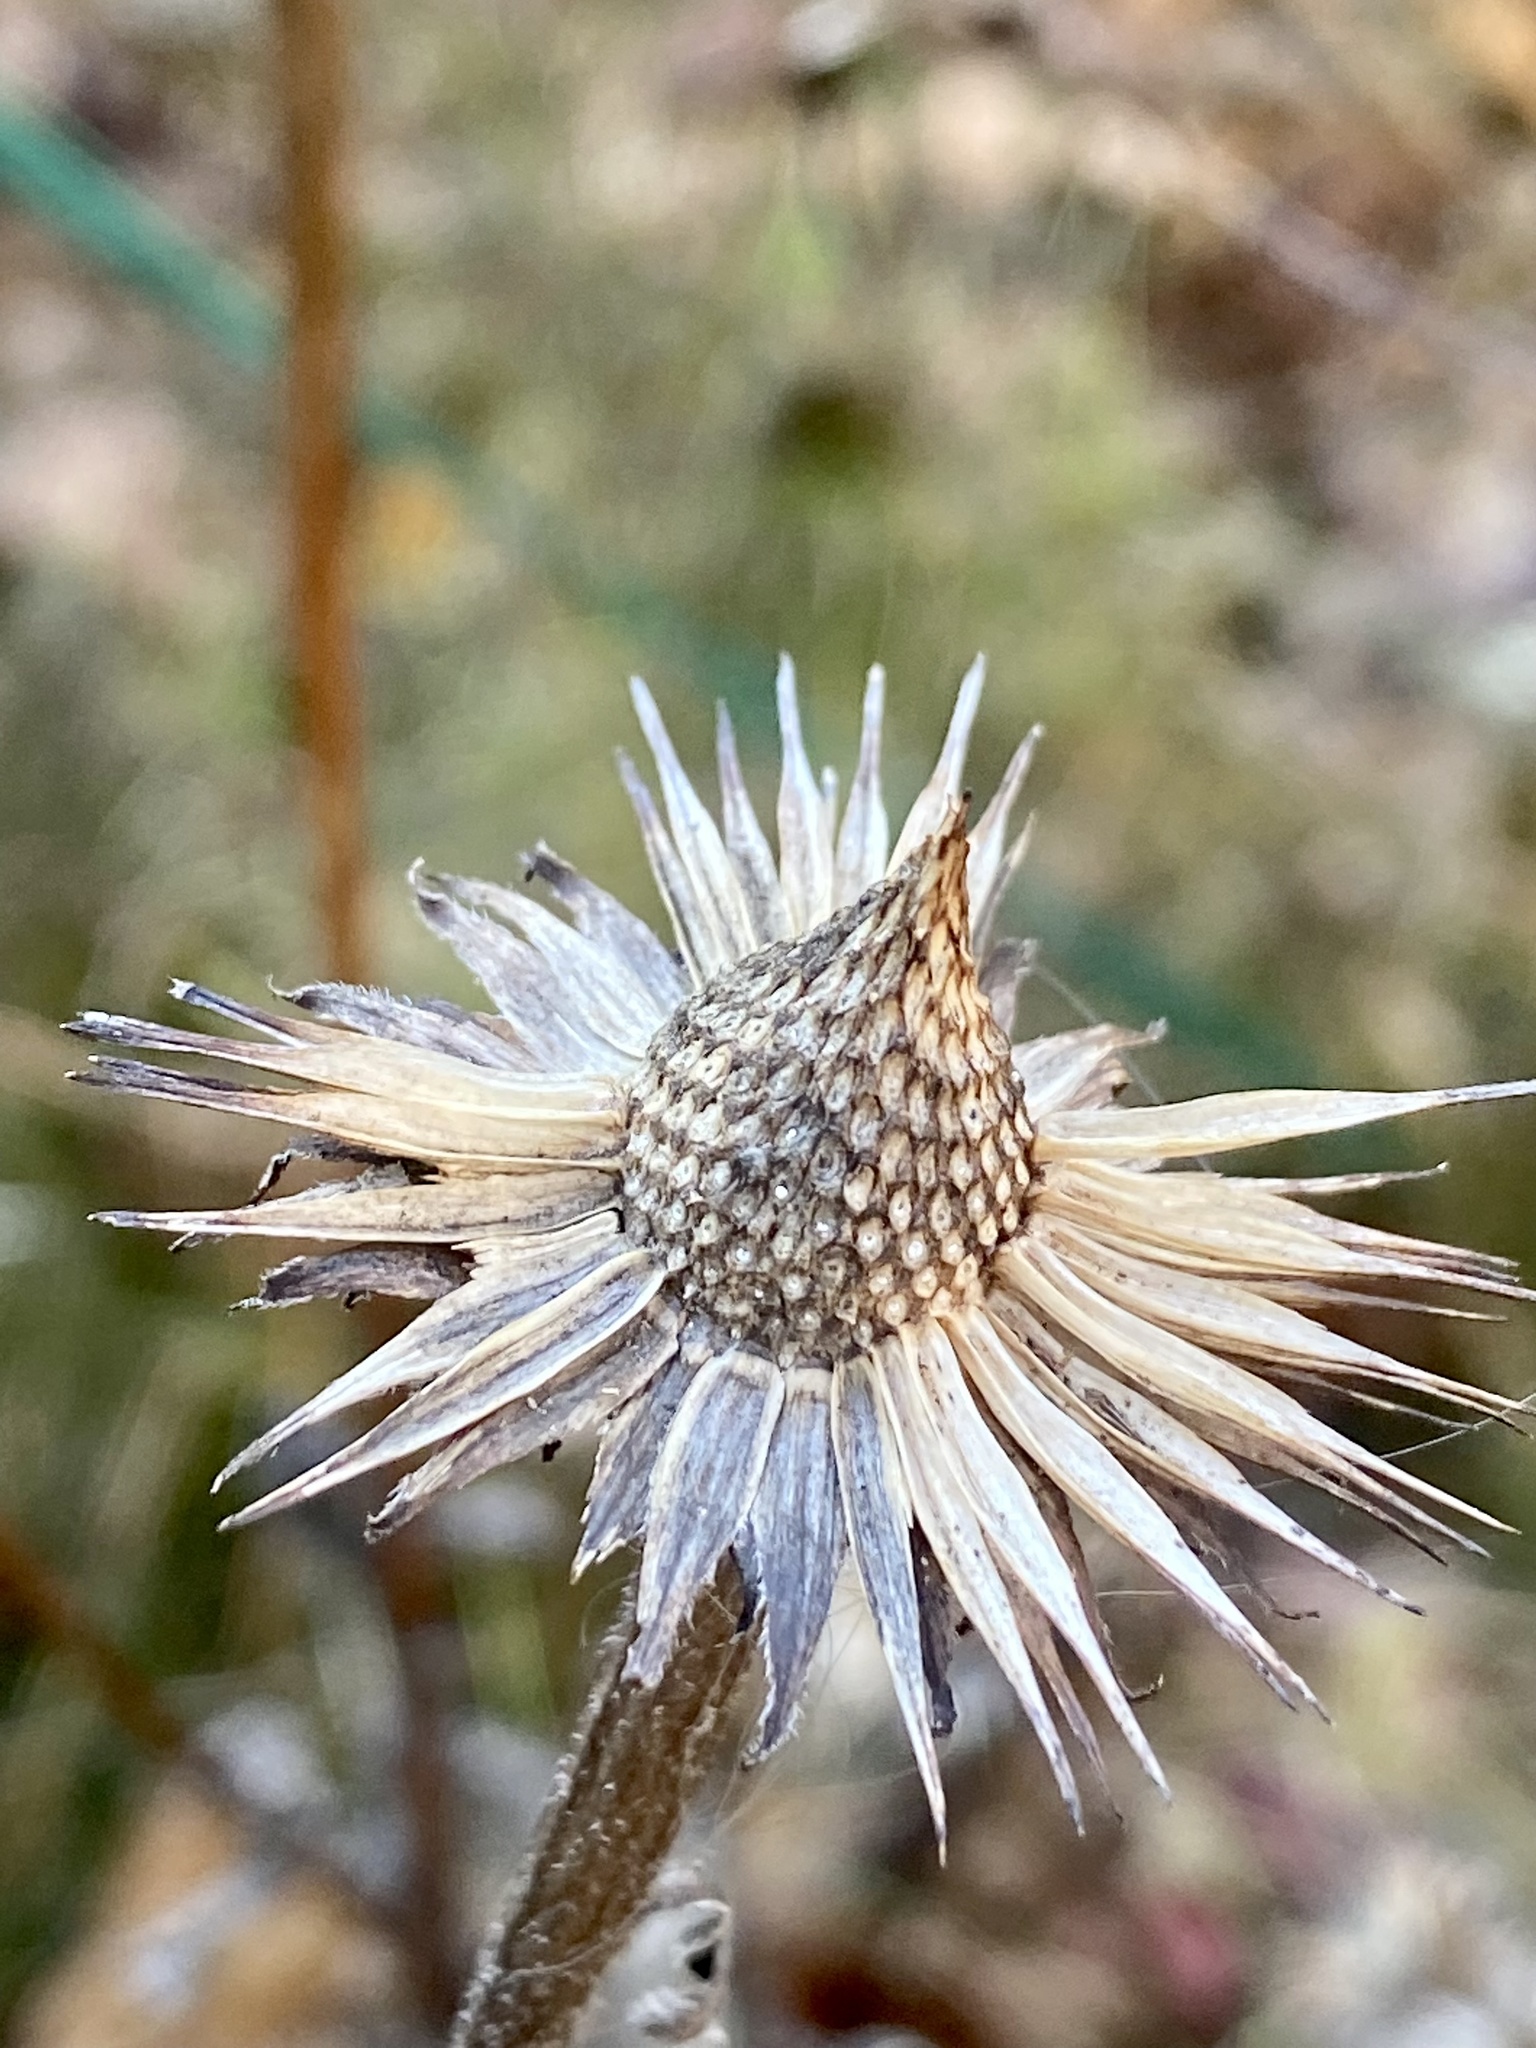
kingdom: Plantae
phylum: Tracheophyta
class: Magnoliopsida
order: Asterales
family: Asteraceae
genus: Echinacea
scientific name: Echinacea purpurea
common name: Broad-leaved purple coneflower
